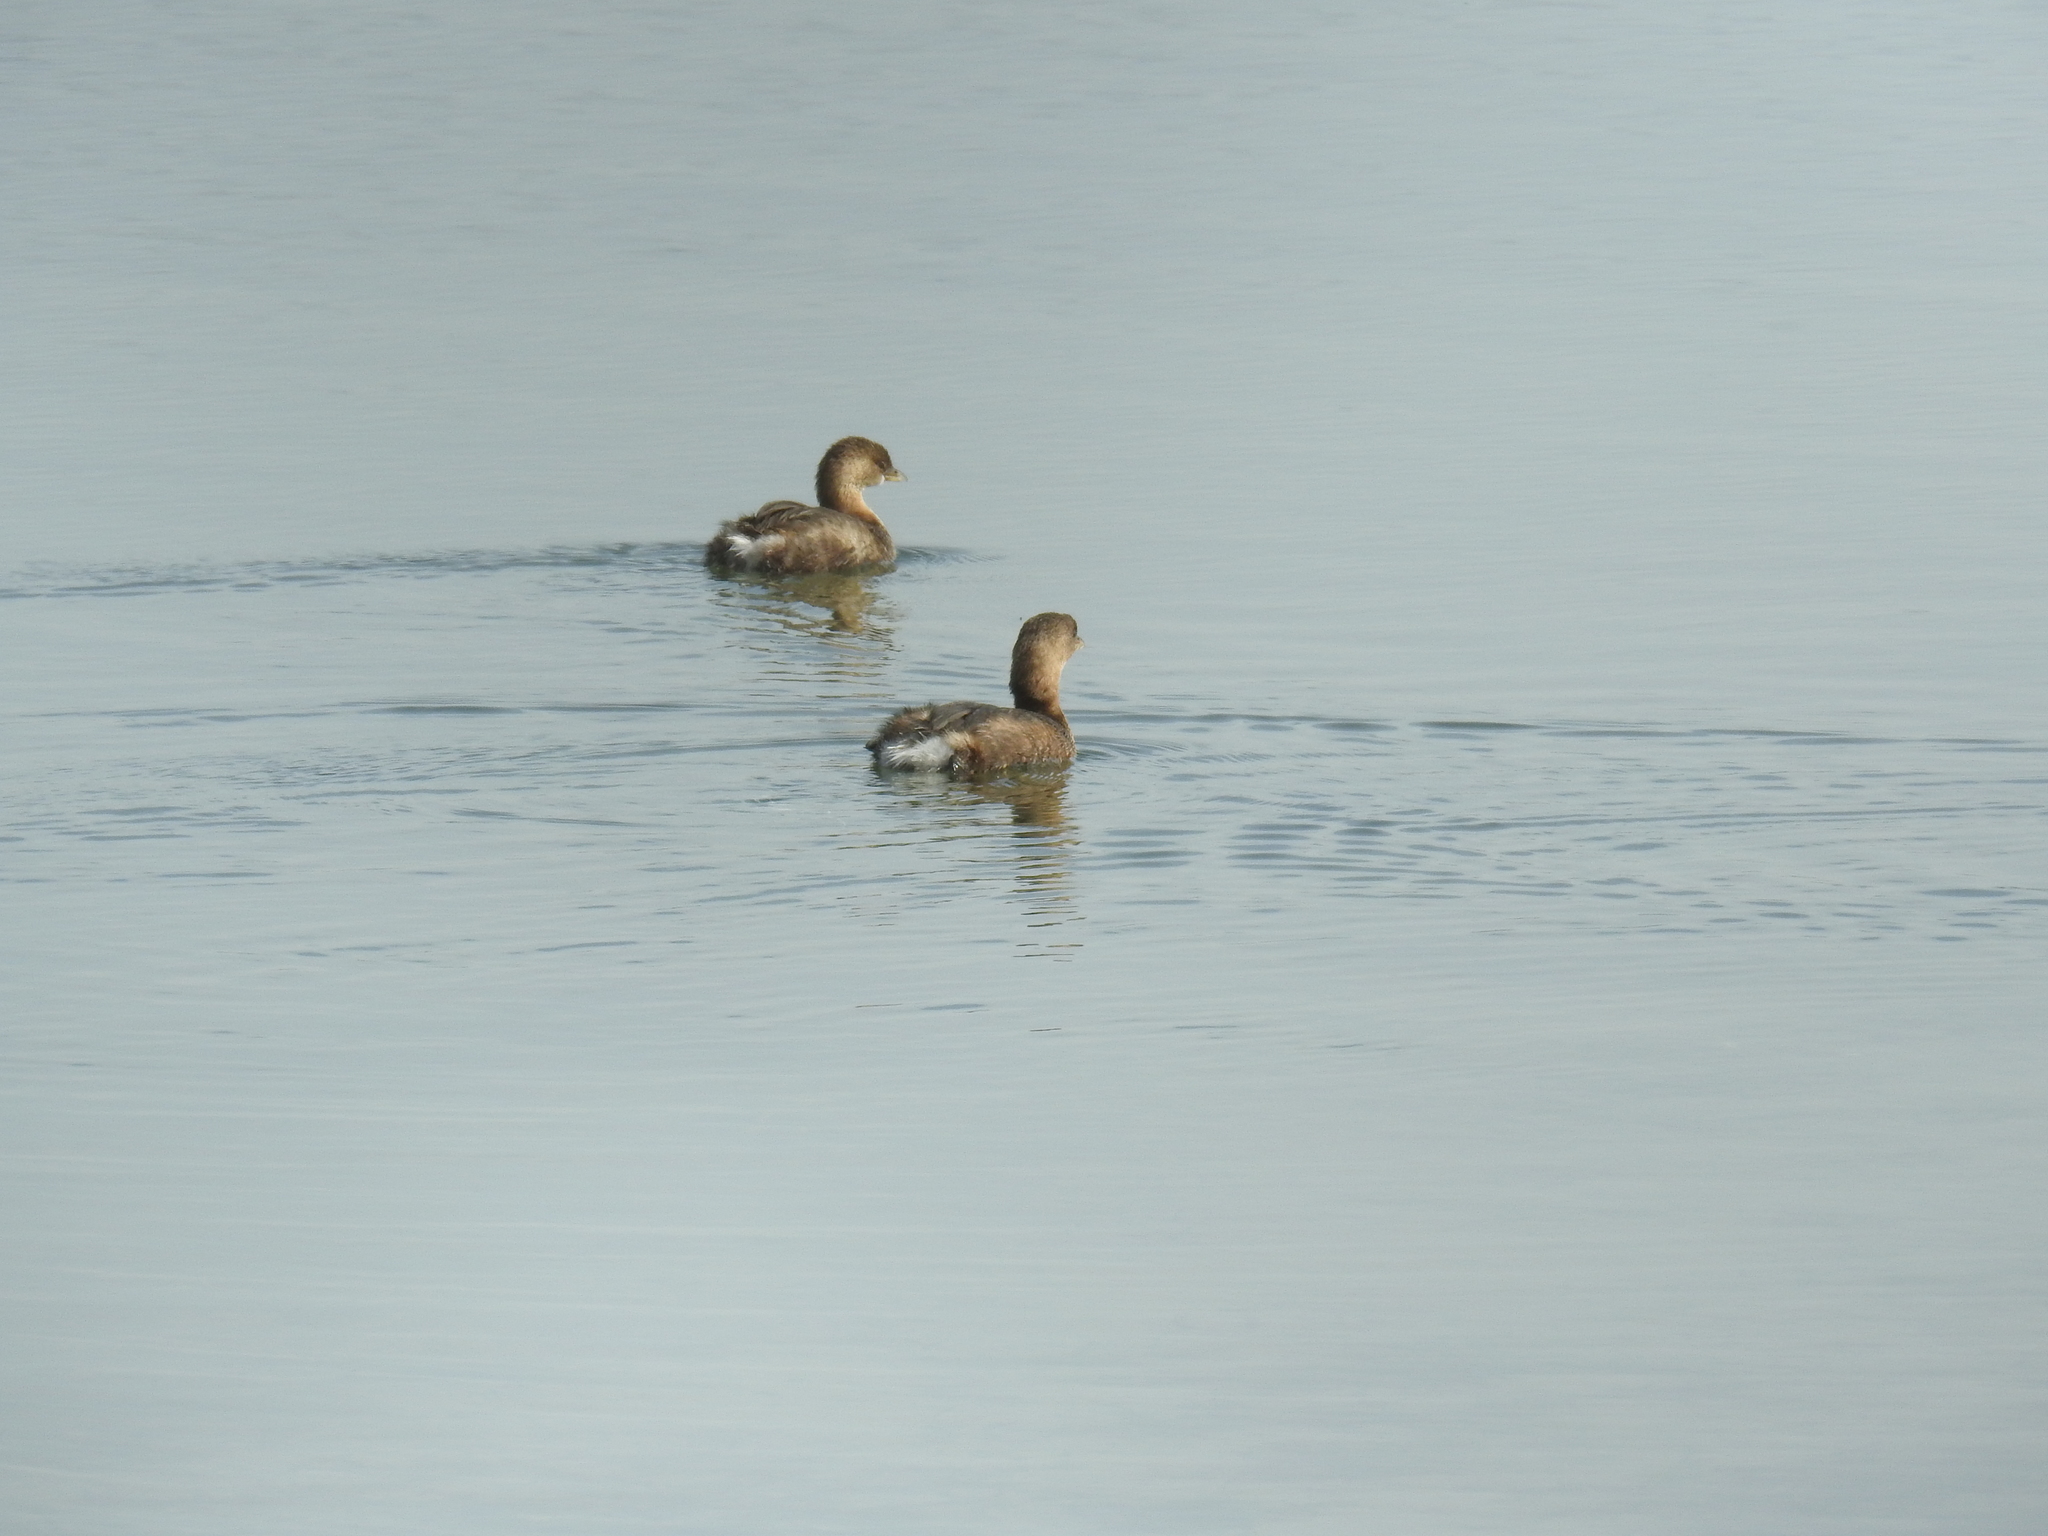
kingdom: Animalia
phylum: Chordata
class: Aves
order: Podicipediformes
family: Podicipedidae
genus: Podilymbus
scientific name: Podilymbus podiceps
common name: Pied-billed grebe
